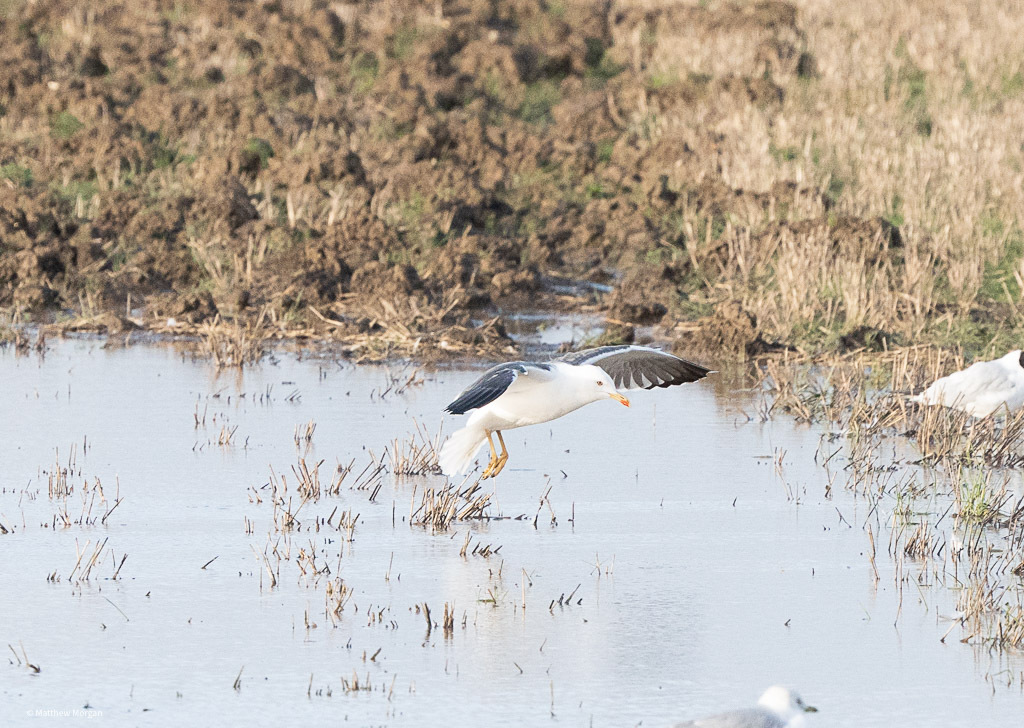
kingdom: Animalia
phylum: Chordata
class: Aves
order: Charadriiformes
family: Laridae
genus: Larus
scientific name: Larus fuscus
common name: Lesser black-backed gull
